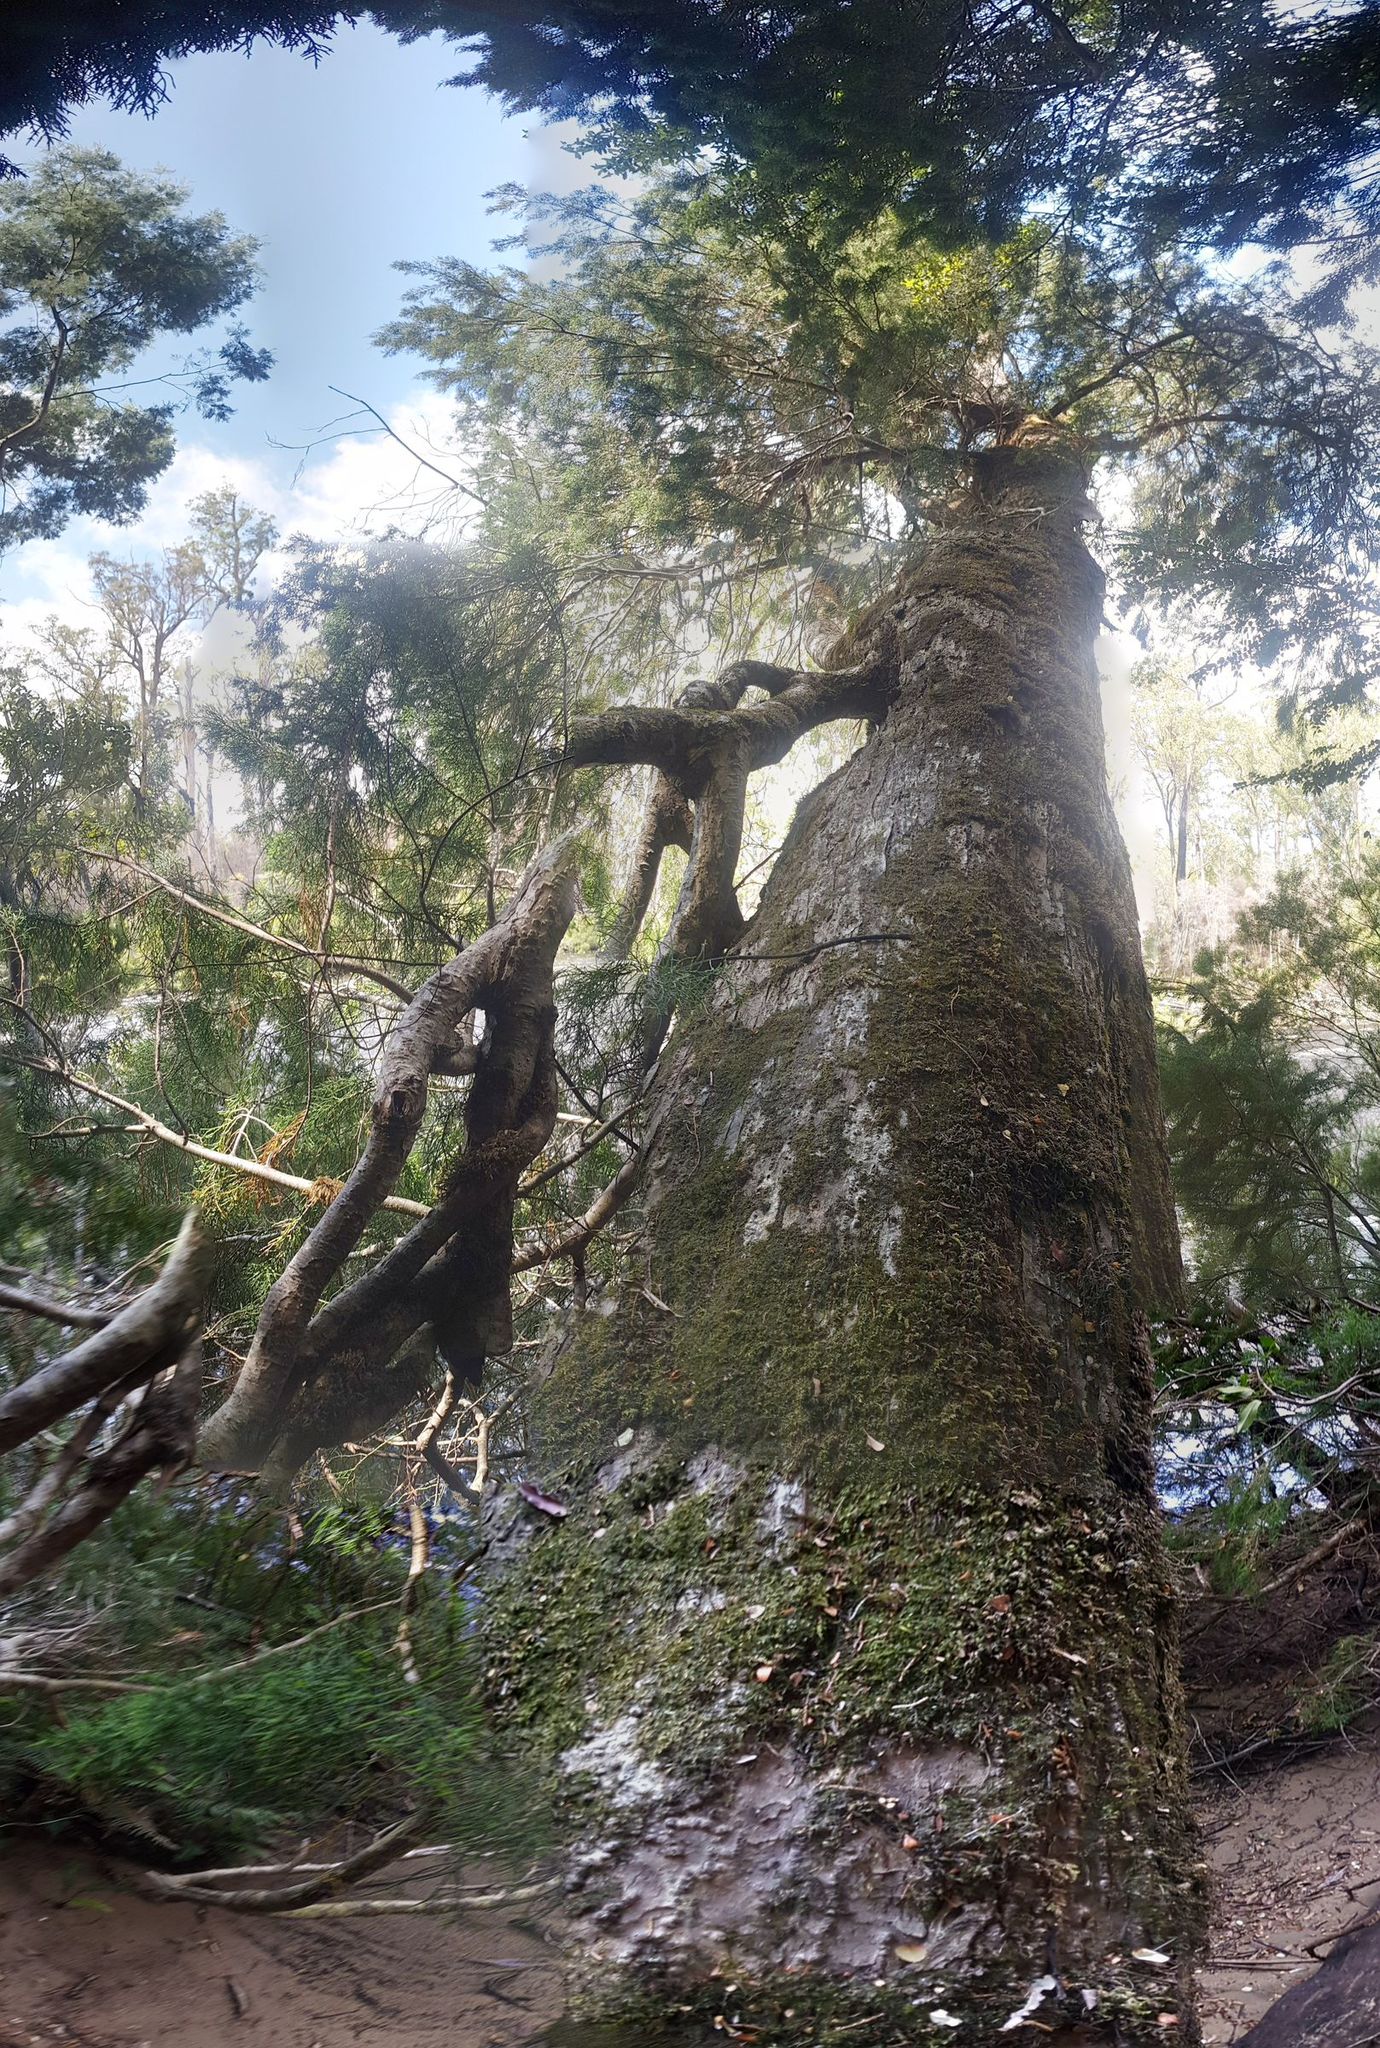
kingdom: Plantae
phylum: Tracheophyta
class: Pinopsida
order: Pinales
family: Podocarpaceae
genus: Lagarostrobos
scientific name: Lagarostrobos franklinii
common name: Huon pine
